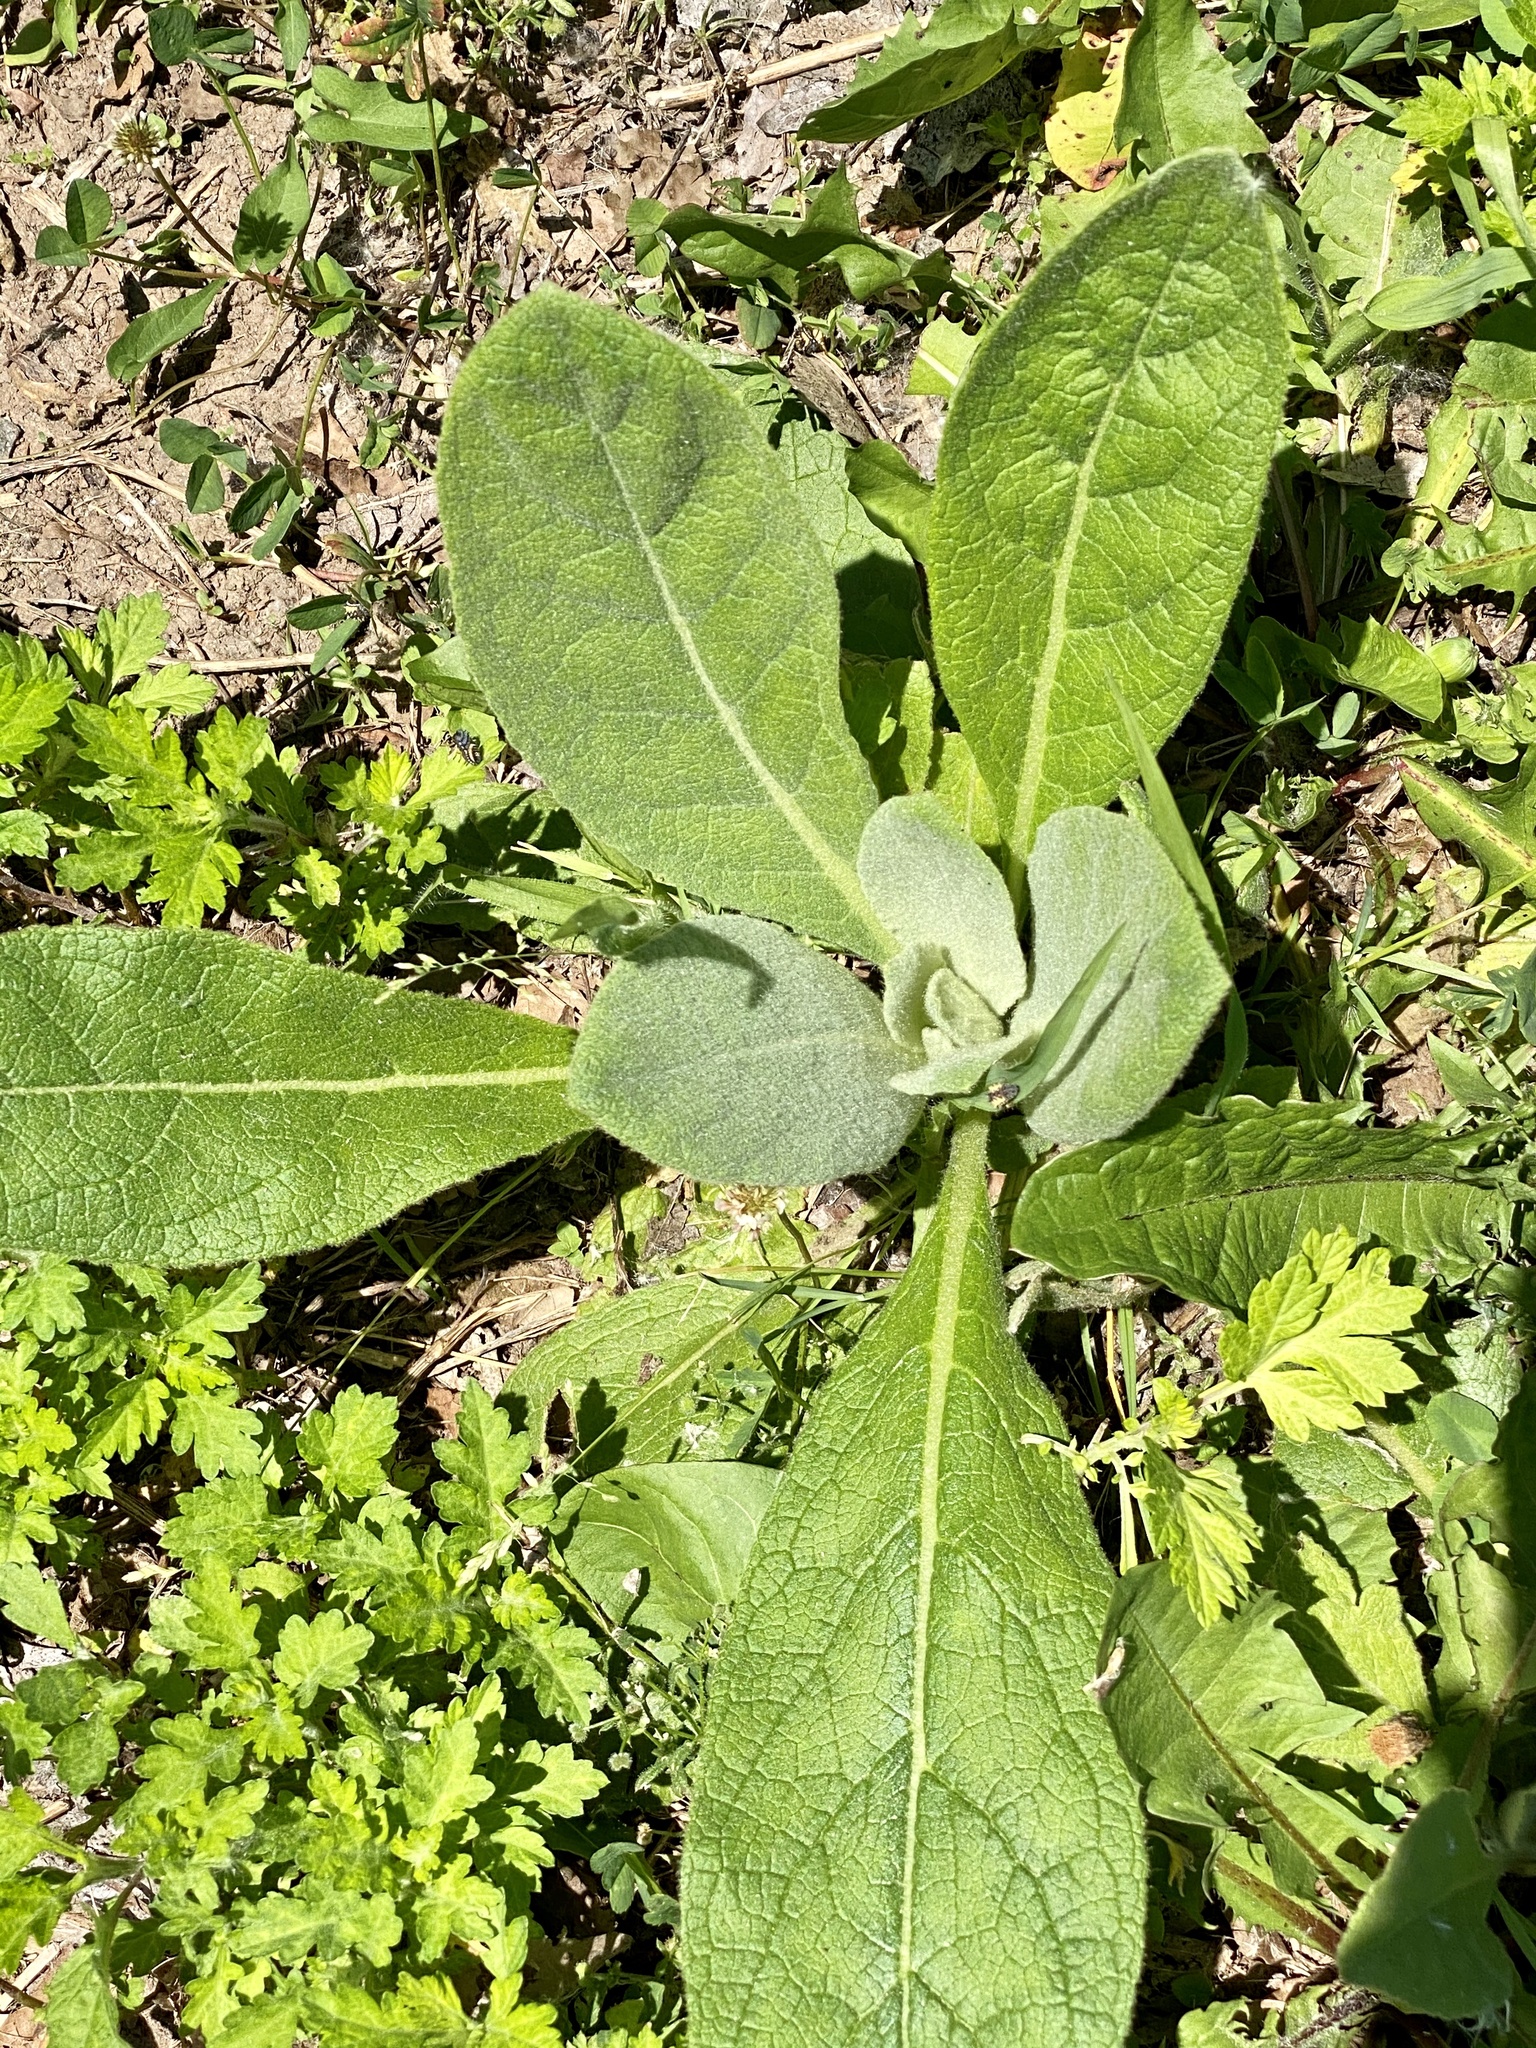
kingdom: Plantae
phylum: Tracheophyta
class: Magnoliopsida
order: Lamiales
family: Scrophulariaceae
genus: Verbascum
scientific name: Verbascum thapsus
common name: Common mullein
